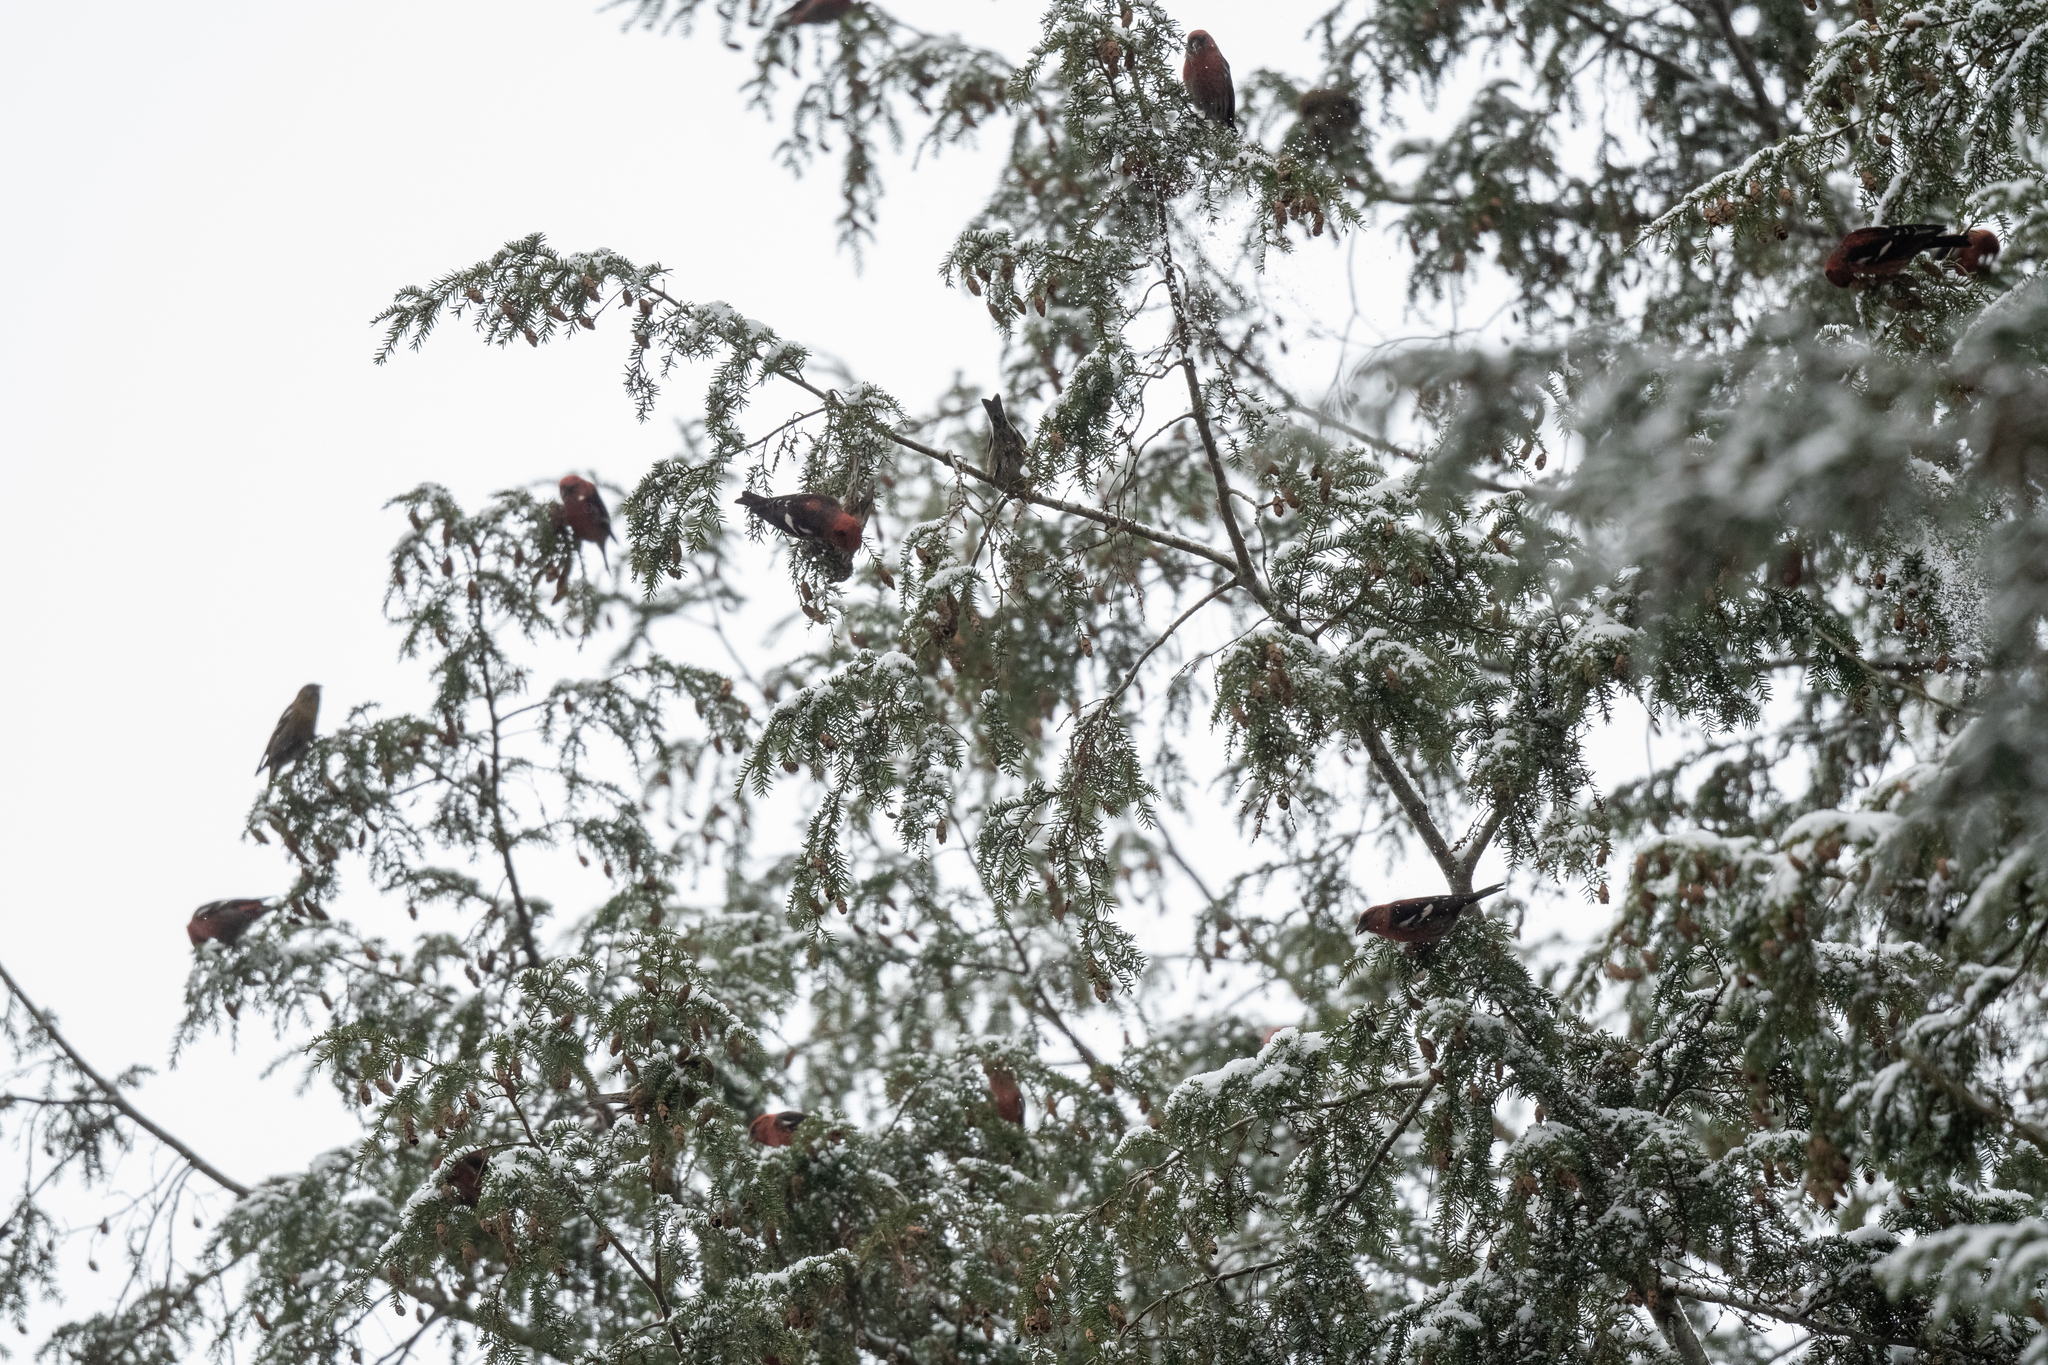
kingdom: Animalia
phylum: Chordata
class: Aves
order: Passeriformes
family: Fringillidae
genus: Loxia
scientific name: Loxia leucoptera
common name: Two-barred crossbill
